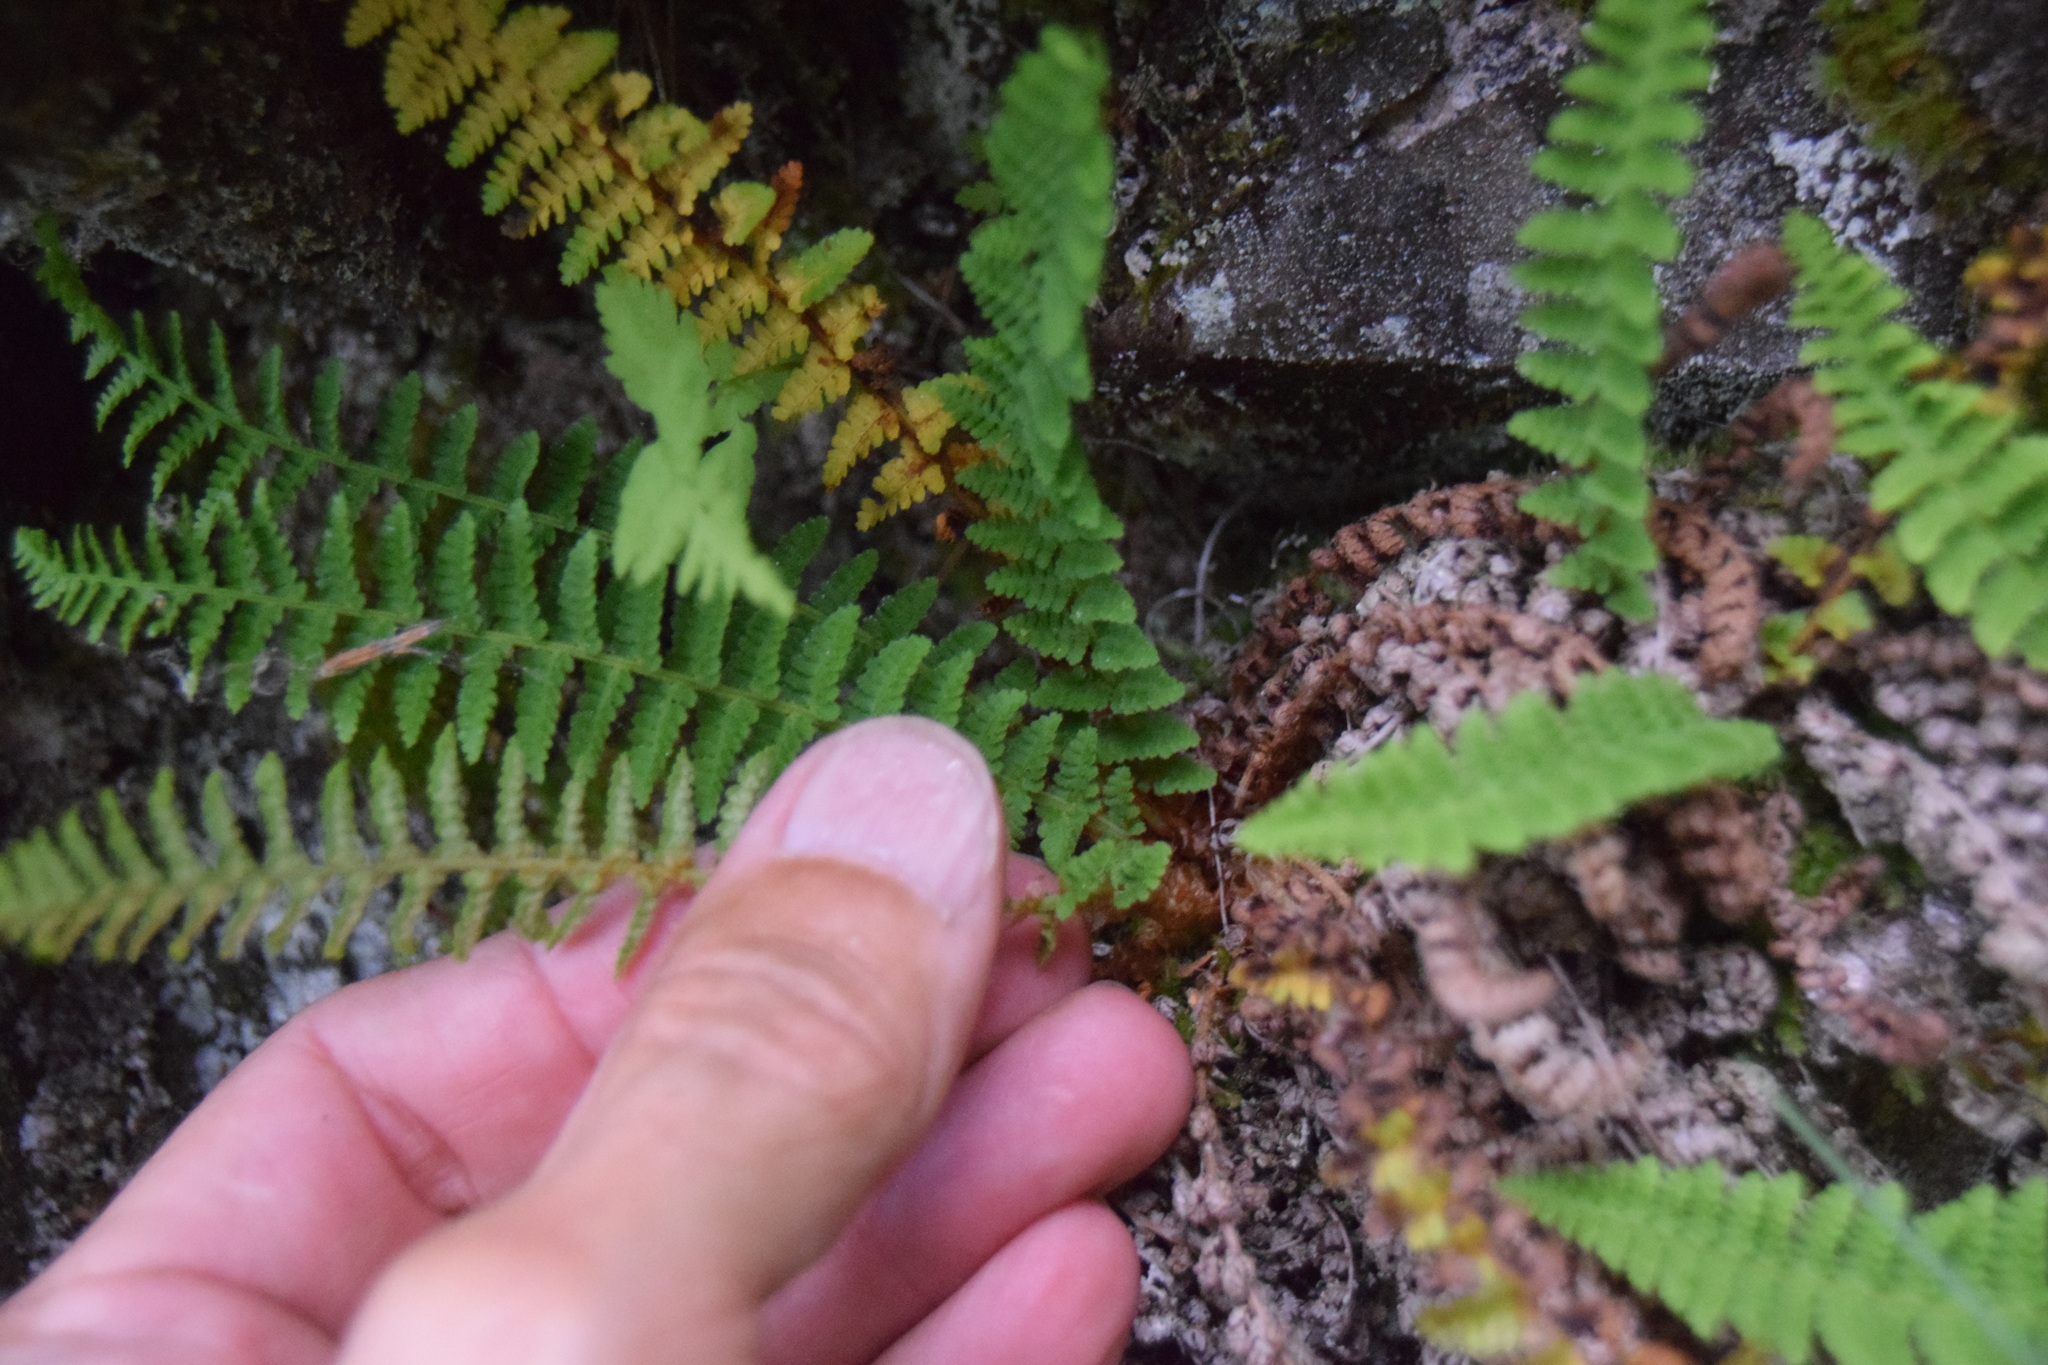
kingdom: Plantae
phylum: Tracheophyta
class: Polypodiopsida
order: Polypodiales
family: Dryopteridaceae
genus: Dryopteris
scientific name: Dryopteris fragrans
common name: Fragrant wood fern
